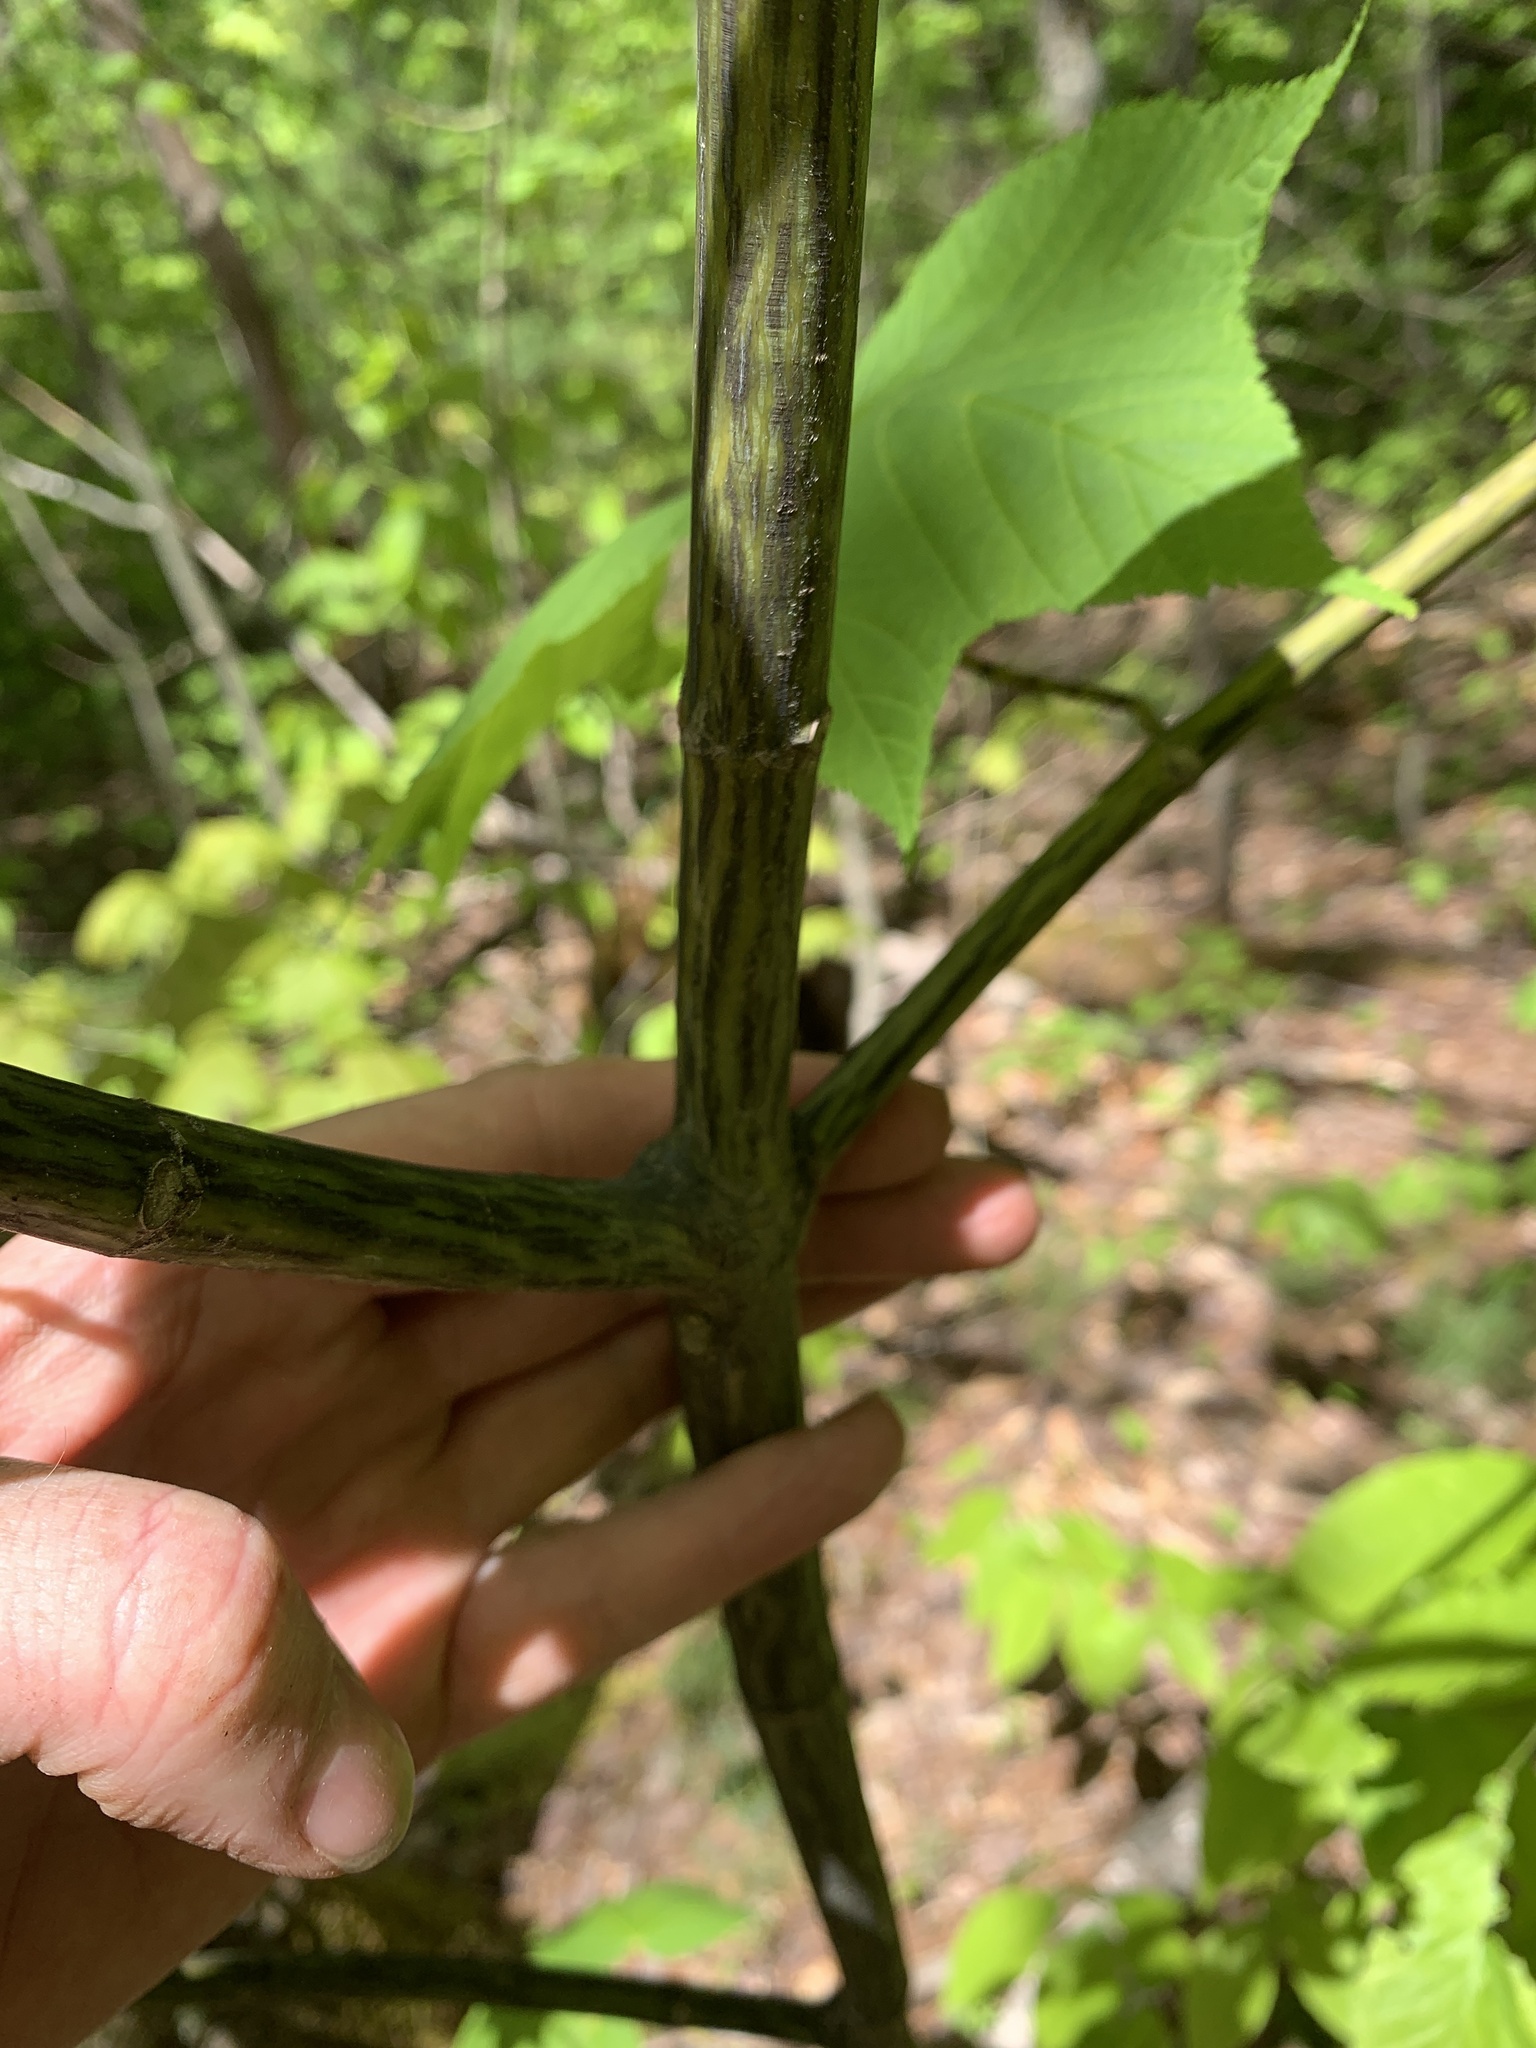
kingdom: Plantae
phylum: Tracheophyta
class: Magnoliopsida
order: Sapindales
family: Sapindaceae
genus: Acer
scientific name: Acer pensylvanicum
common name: Moosewood
